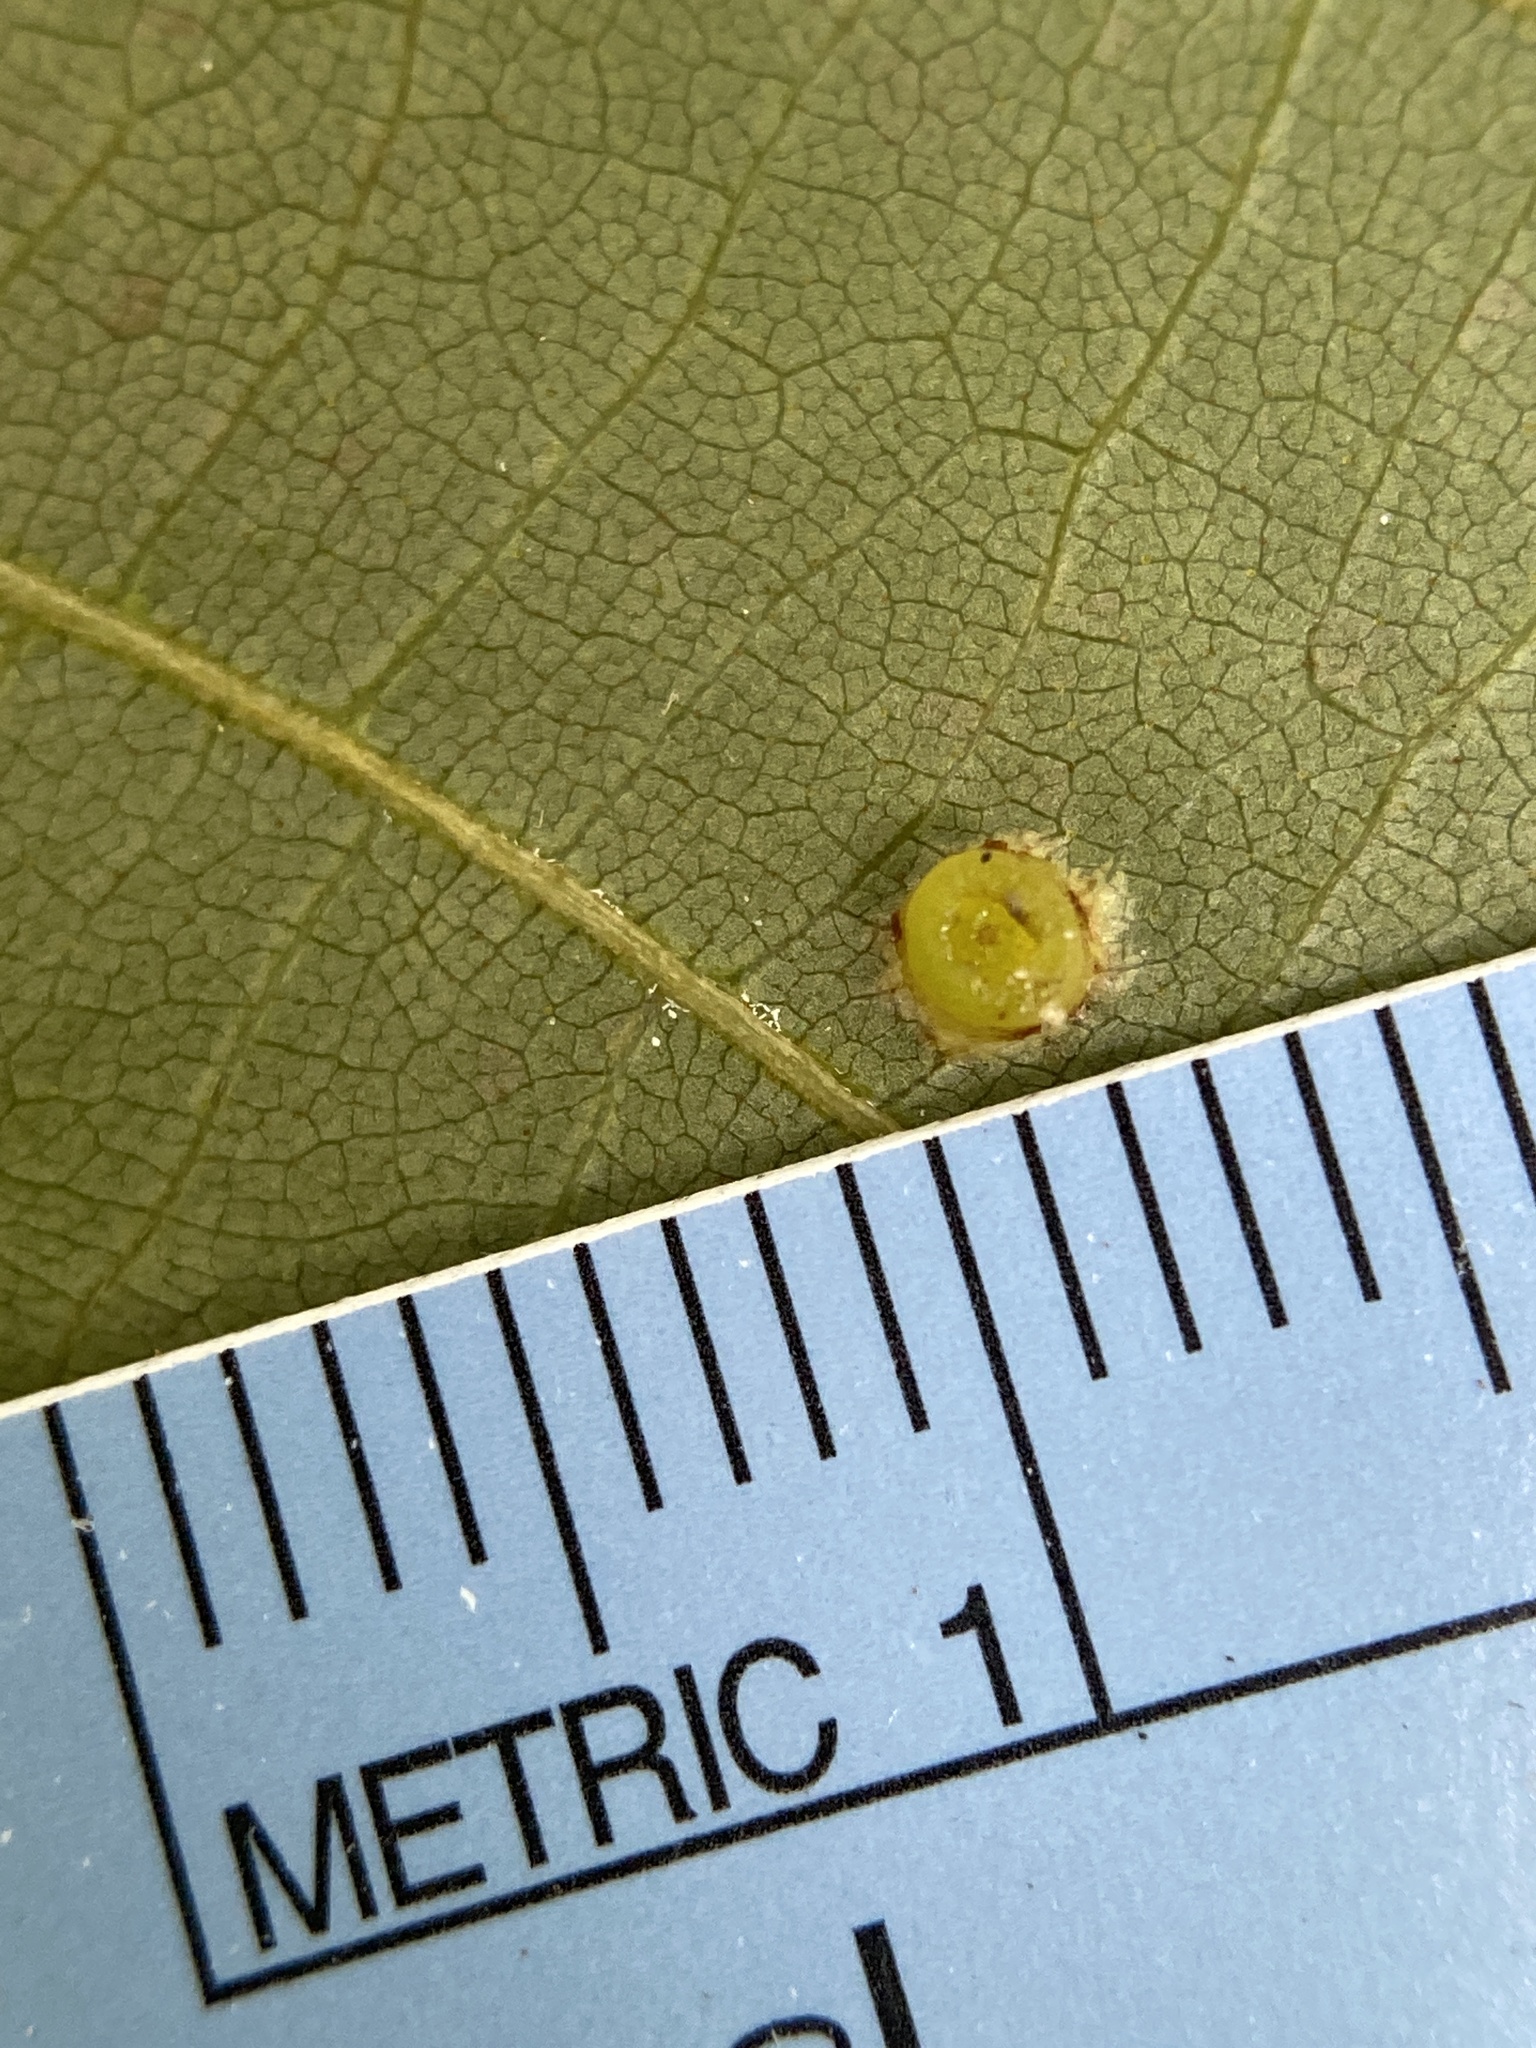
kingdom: Animalia
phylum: Arthropoda
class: Insecta
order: Diptera
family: Cecidomyiidae
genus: Caryomyia
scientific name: Caryomyia melicrustum
